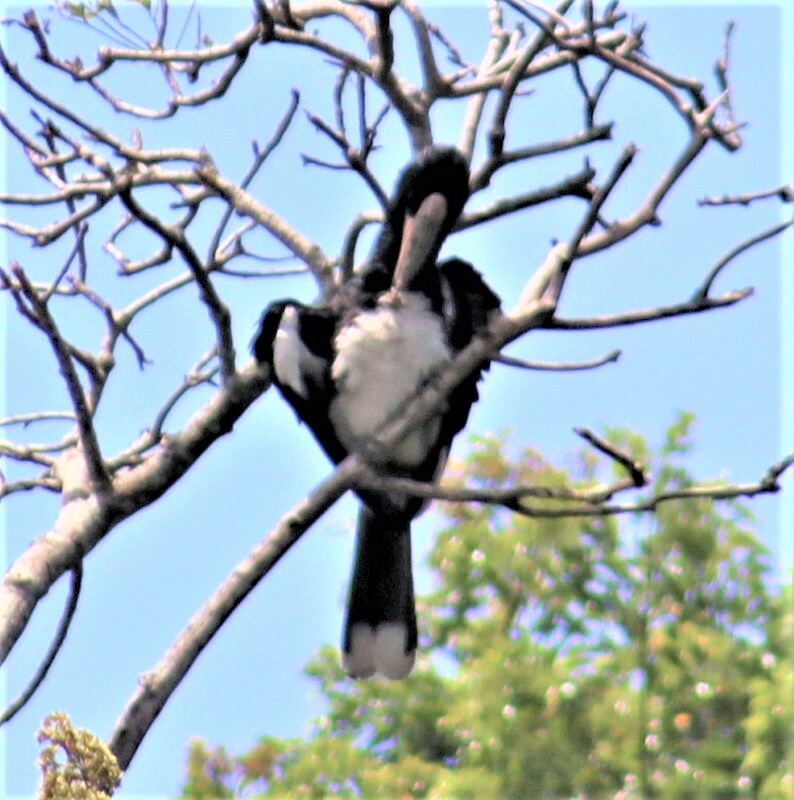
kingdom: Animalia
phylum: Chordata
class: Aves
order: Bucerotiformes
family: Bucerotidae
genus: Bycanistes
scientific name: Bycanistes bucinator
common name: Trumpeter hornbill
